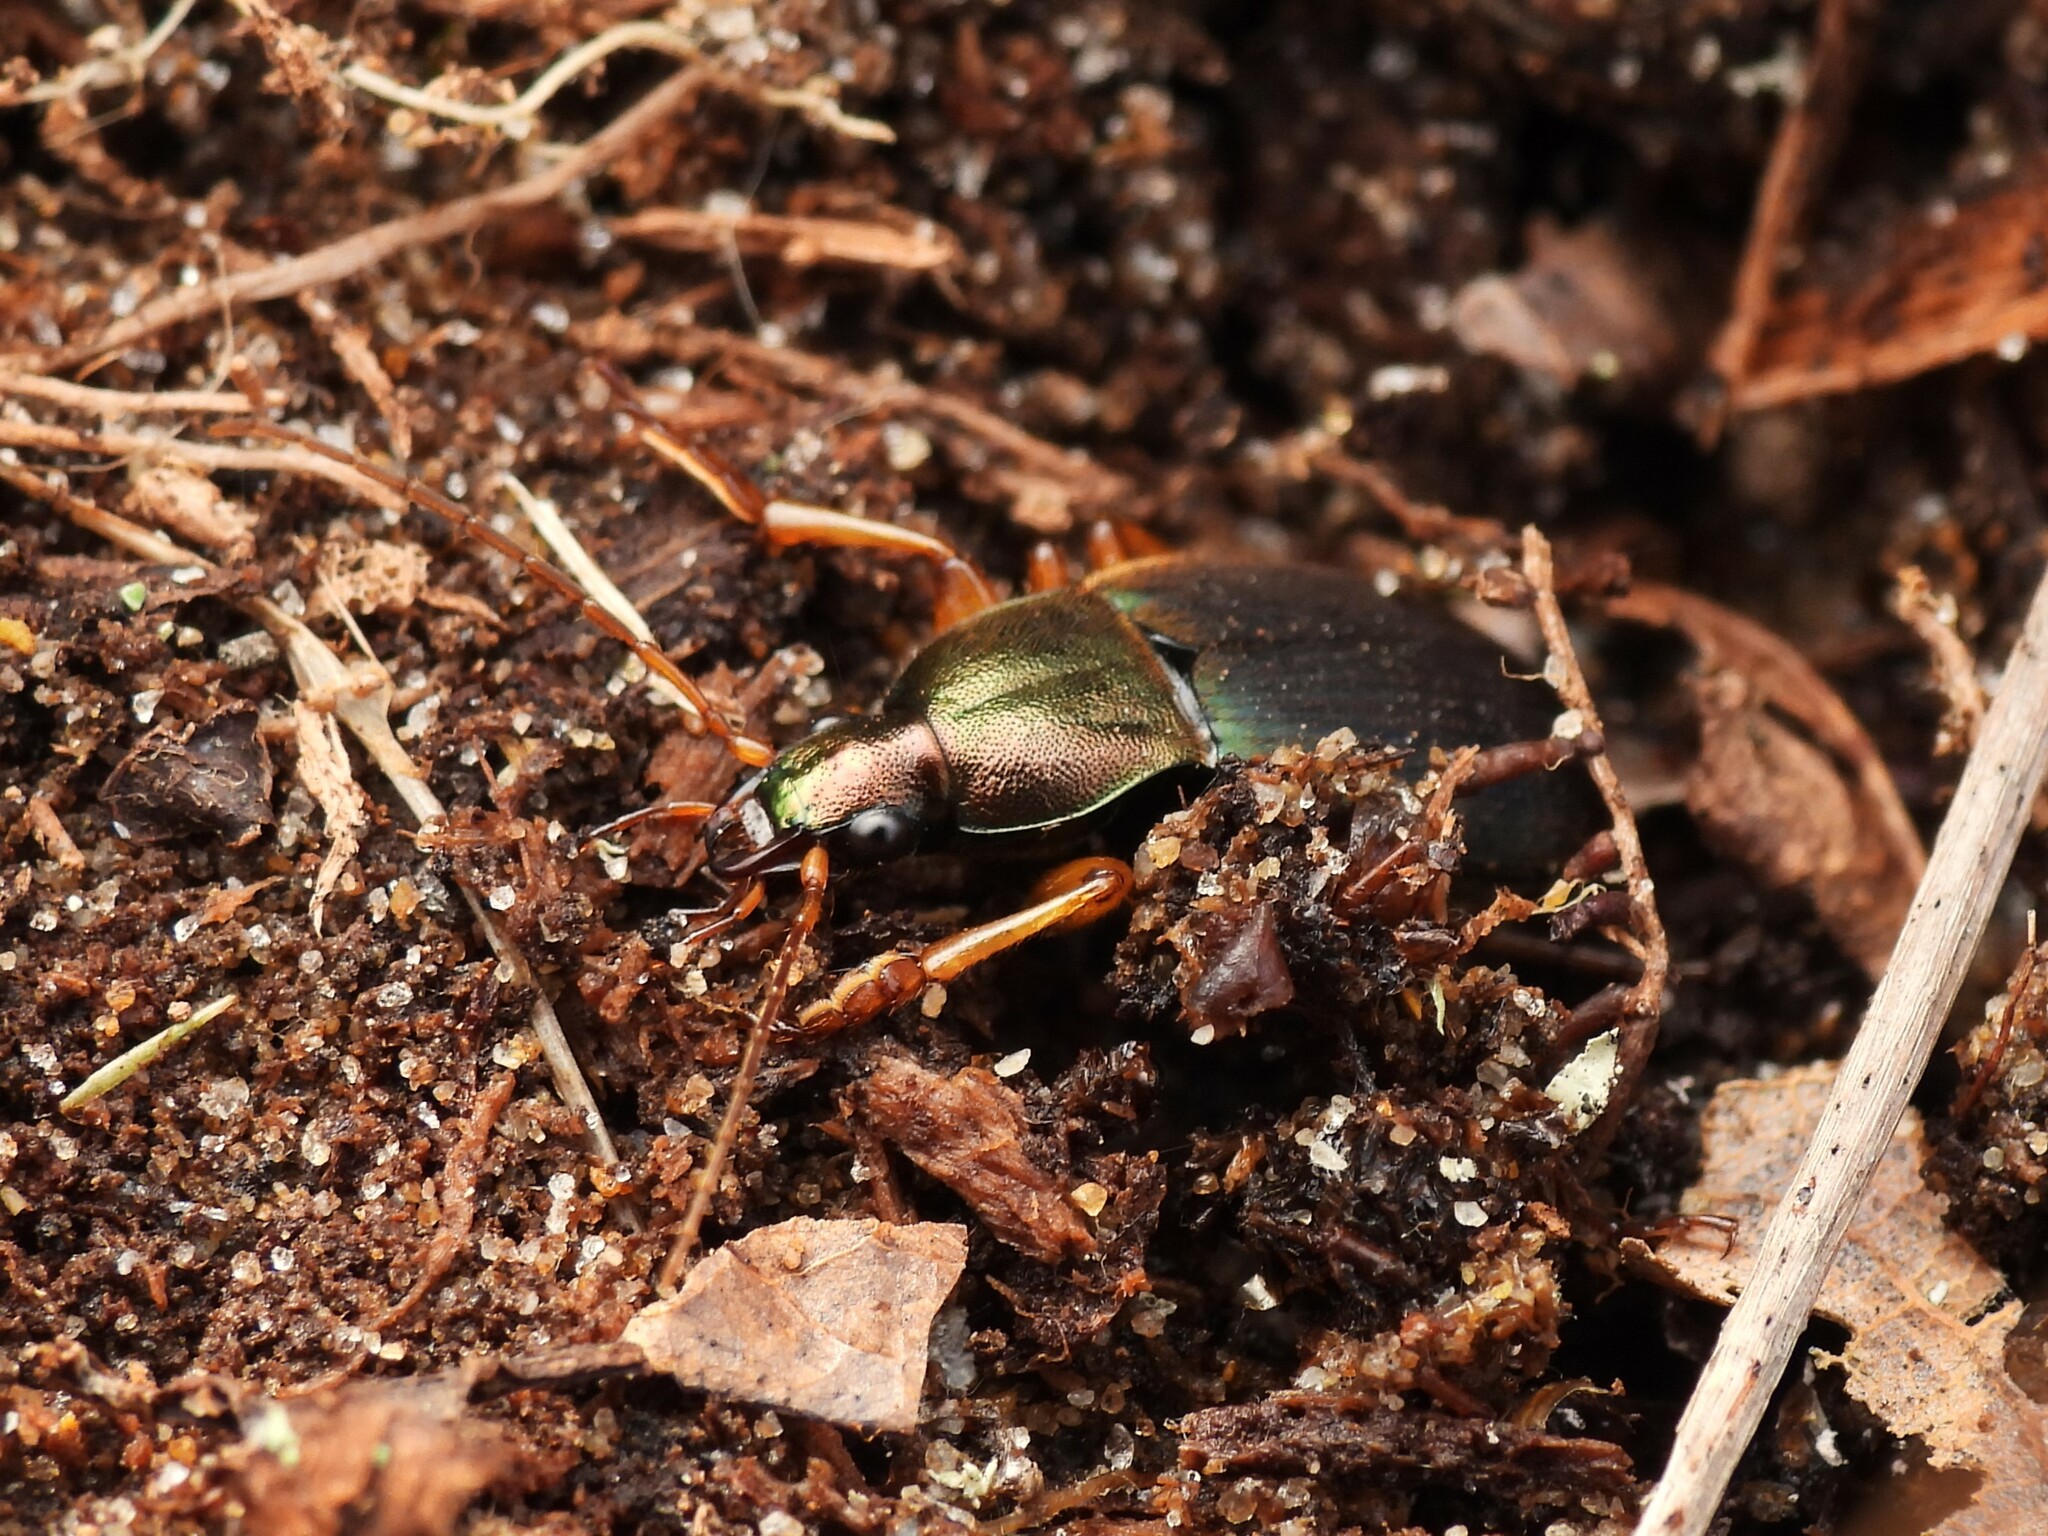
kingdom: Animalia
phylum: Arthropoda
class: Insecta
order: Coleoptera
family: Carabidae
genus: Chlaenius
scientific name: Chlaenius aestivus
